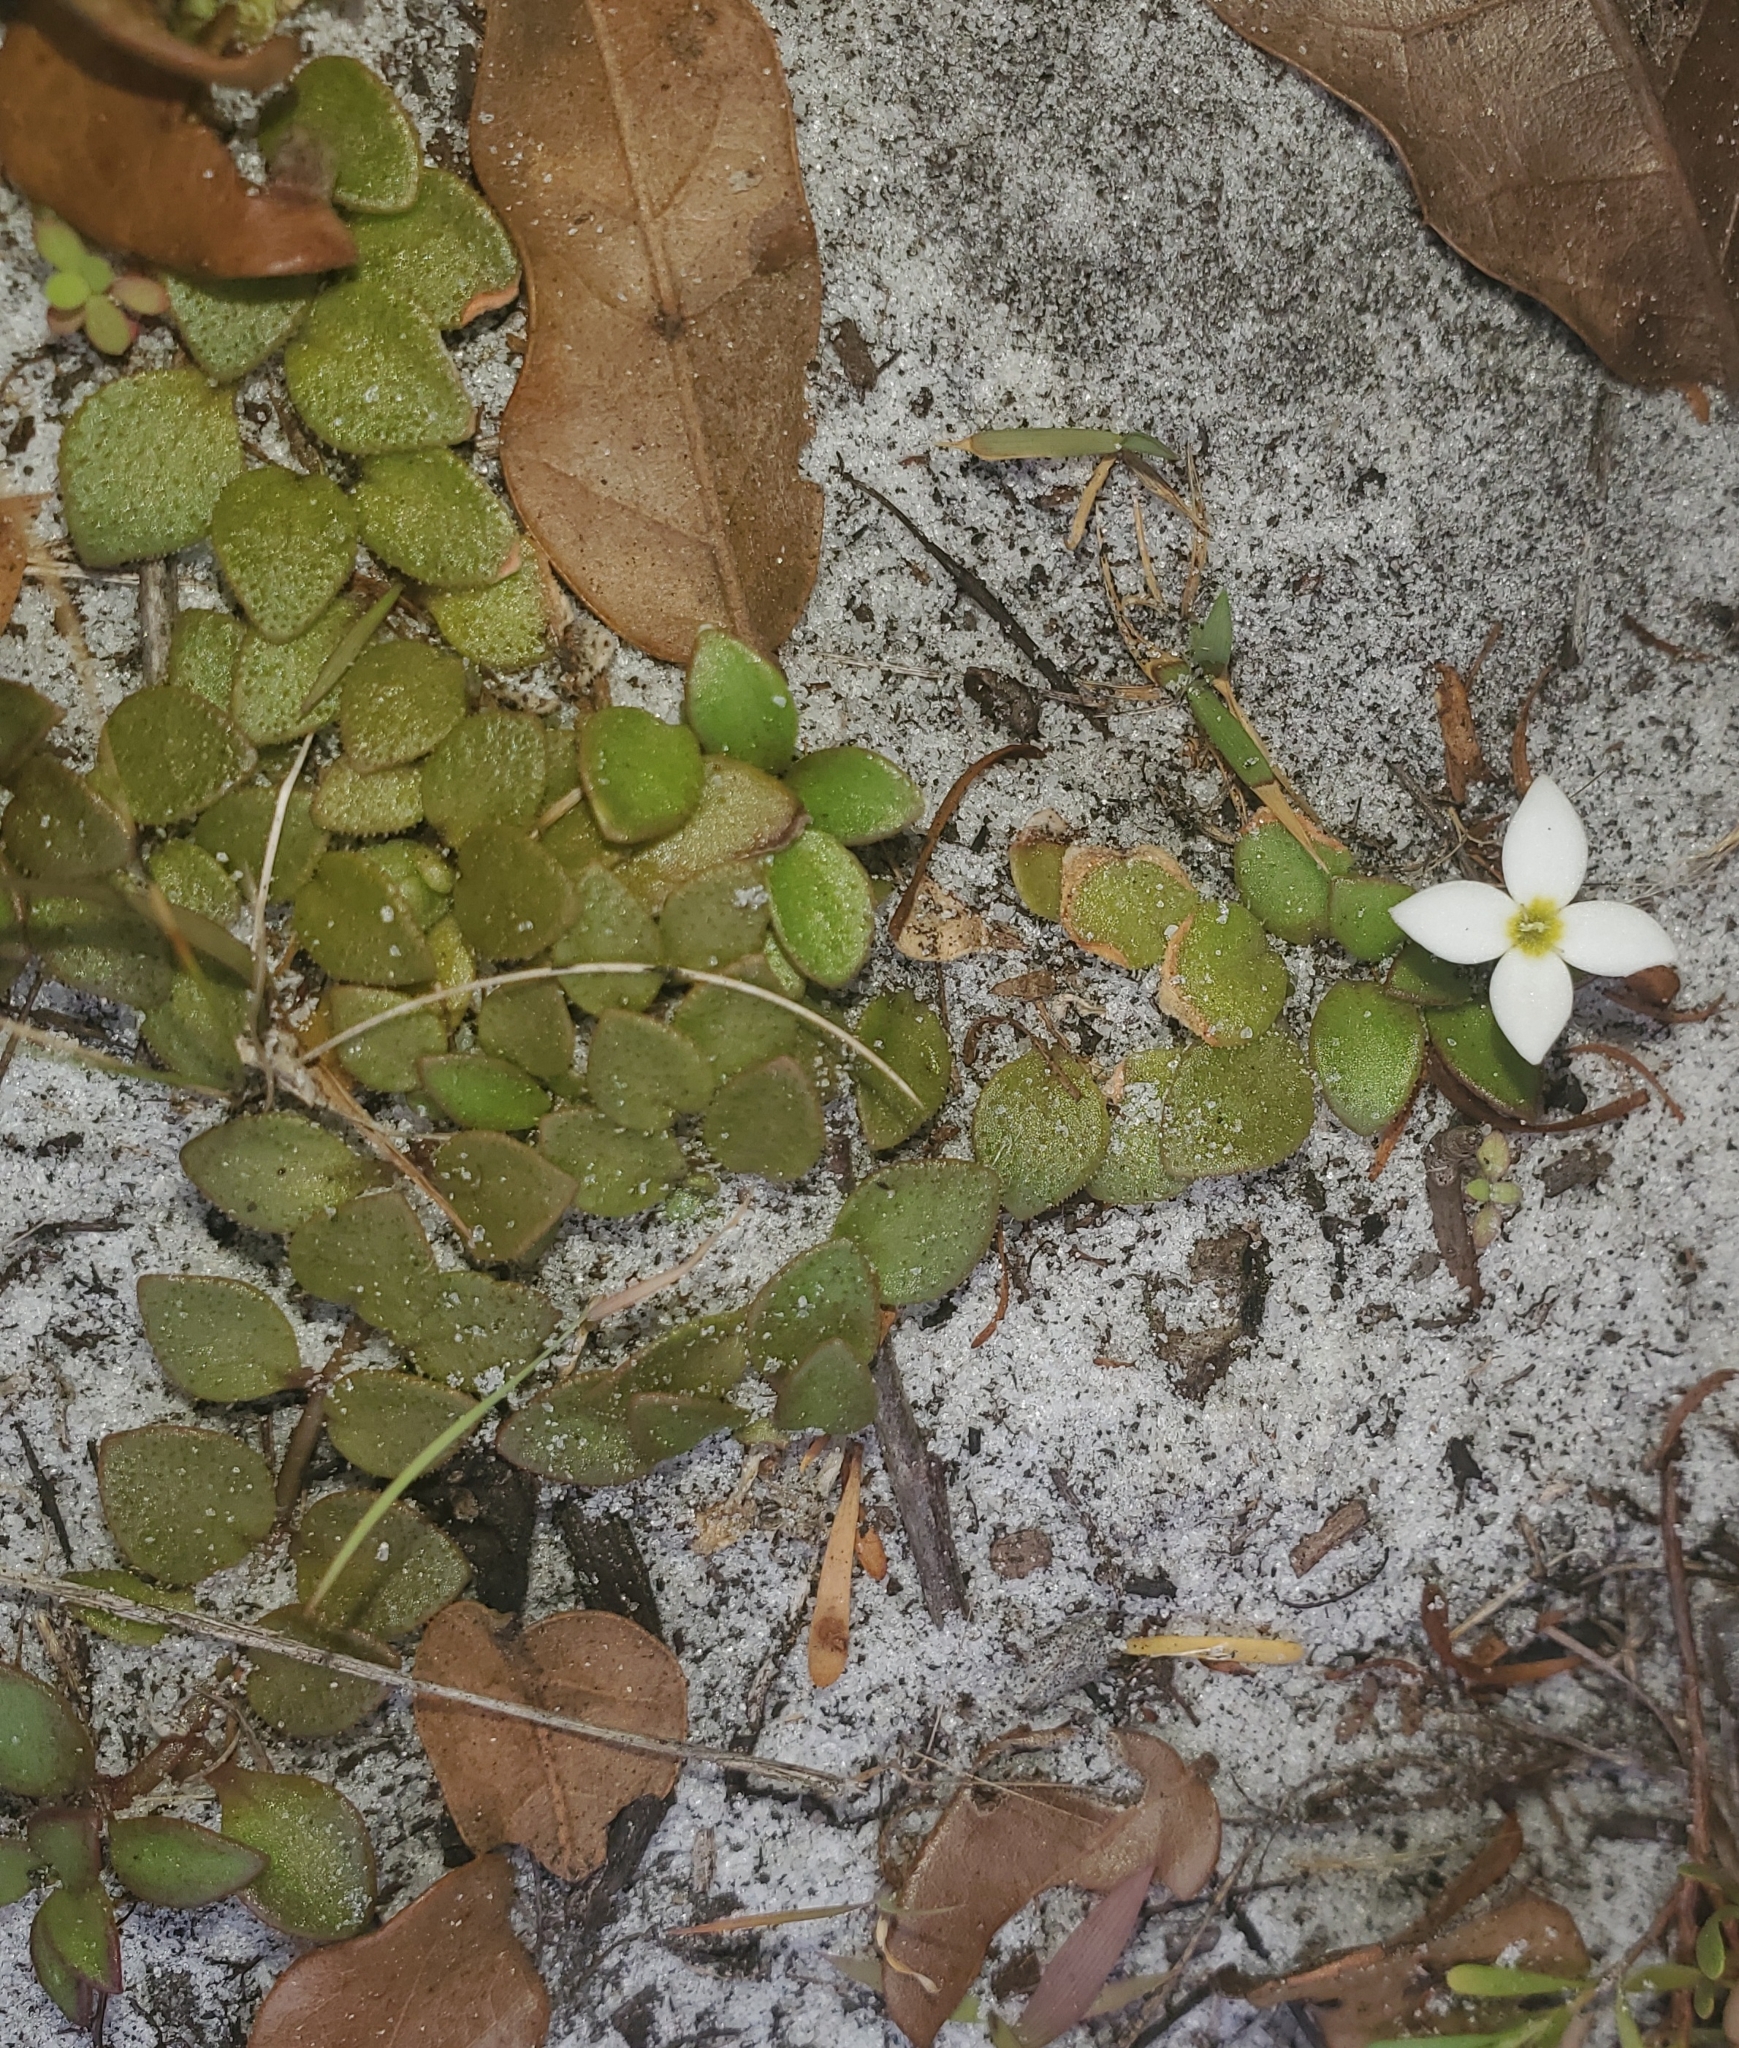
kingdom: Plantae
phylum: Tracheophyta
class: Magnoliopsida
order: Gentianales
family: Rubiaceae
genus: Houstonia
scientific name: Houstonia procumbens
